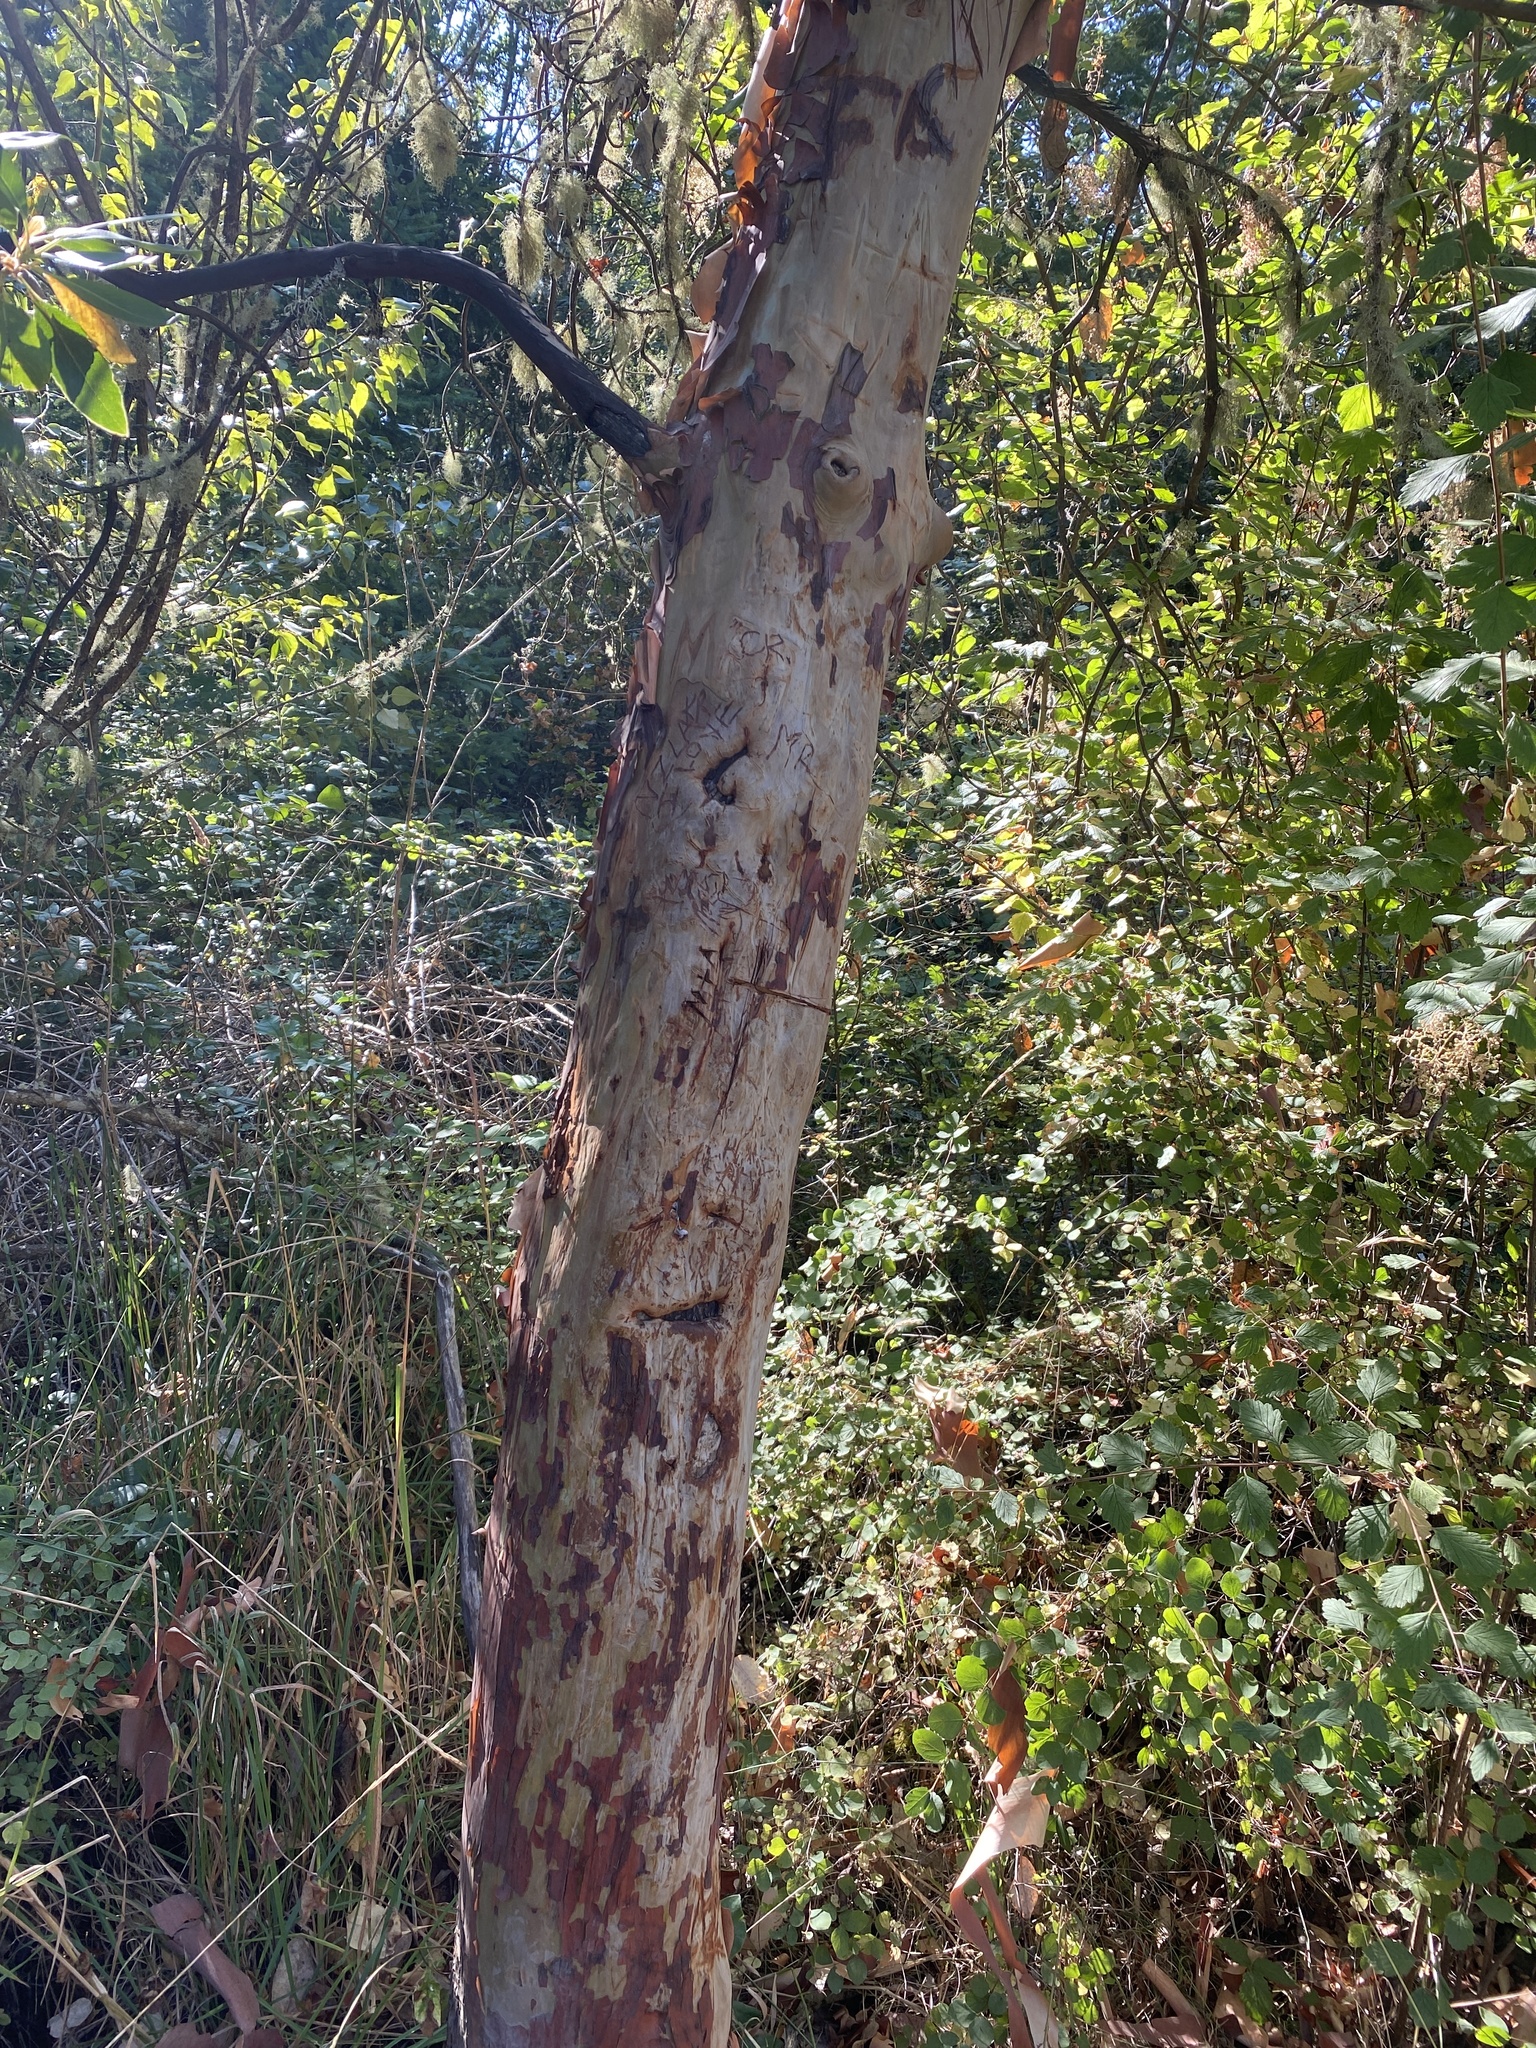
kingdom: Plantae
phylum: Tracheophyta
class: Magnoliopsida
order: Ericales
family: Ericaceae
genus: Arbutus
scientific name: Arbutus menziesii
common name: Pacific madrone
